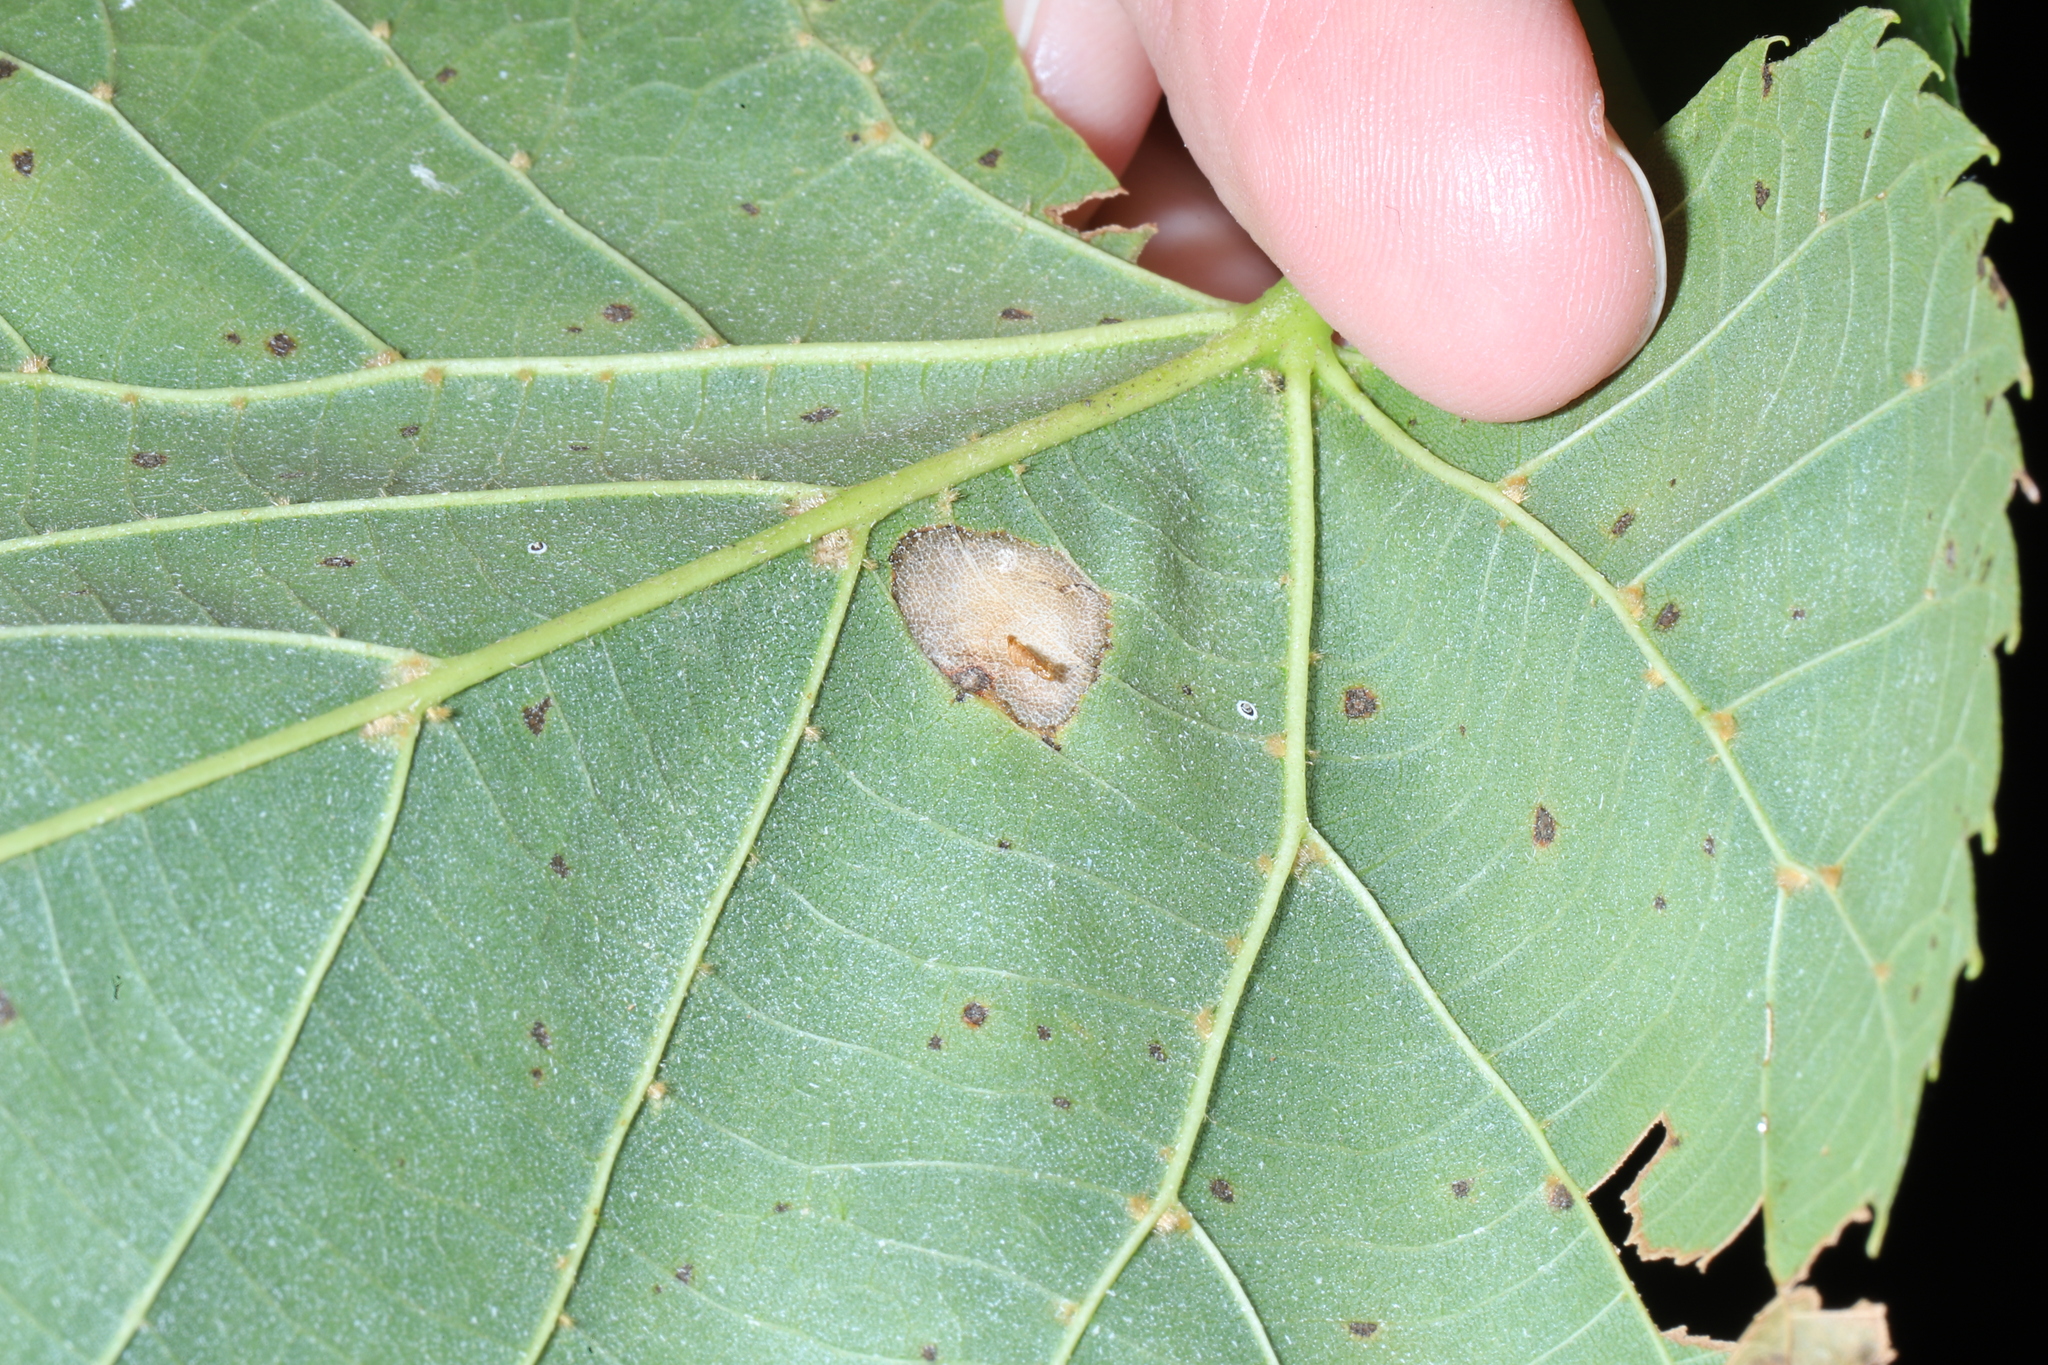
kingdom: Animalia
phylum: Arthropoda
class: Insecta
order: Lepidoptera
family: Gracillariidae
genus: Phyllonorycter
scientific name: Phyllonorycter lucetiella
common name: Basswood miner moth
